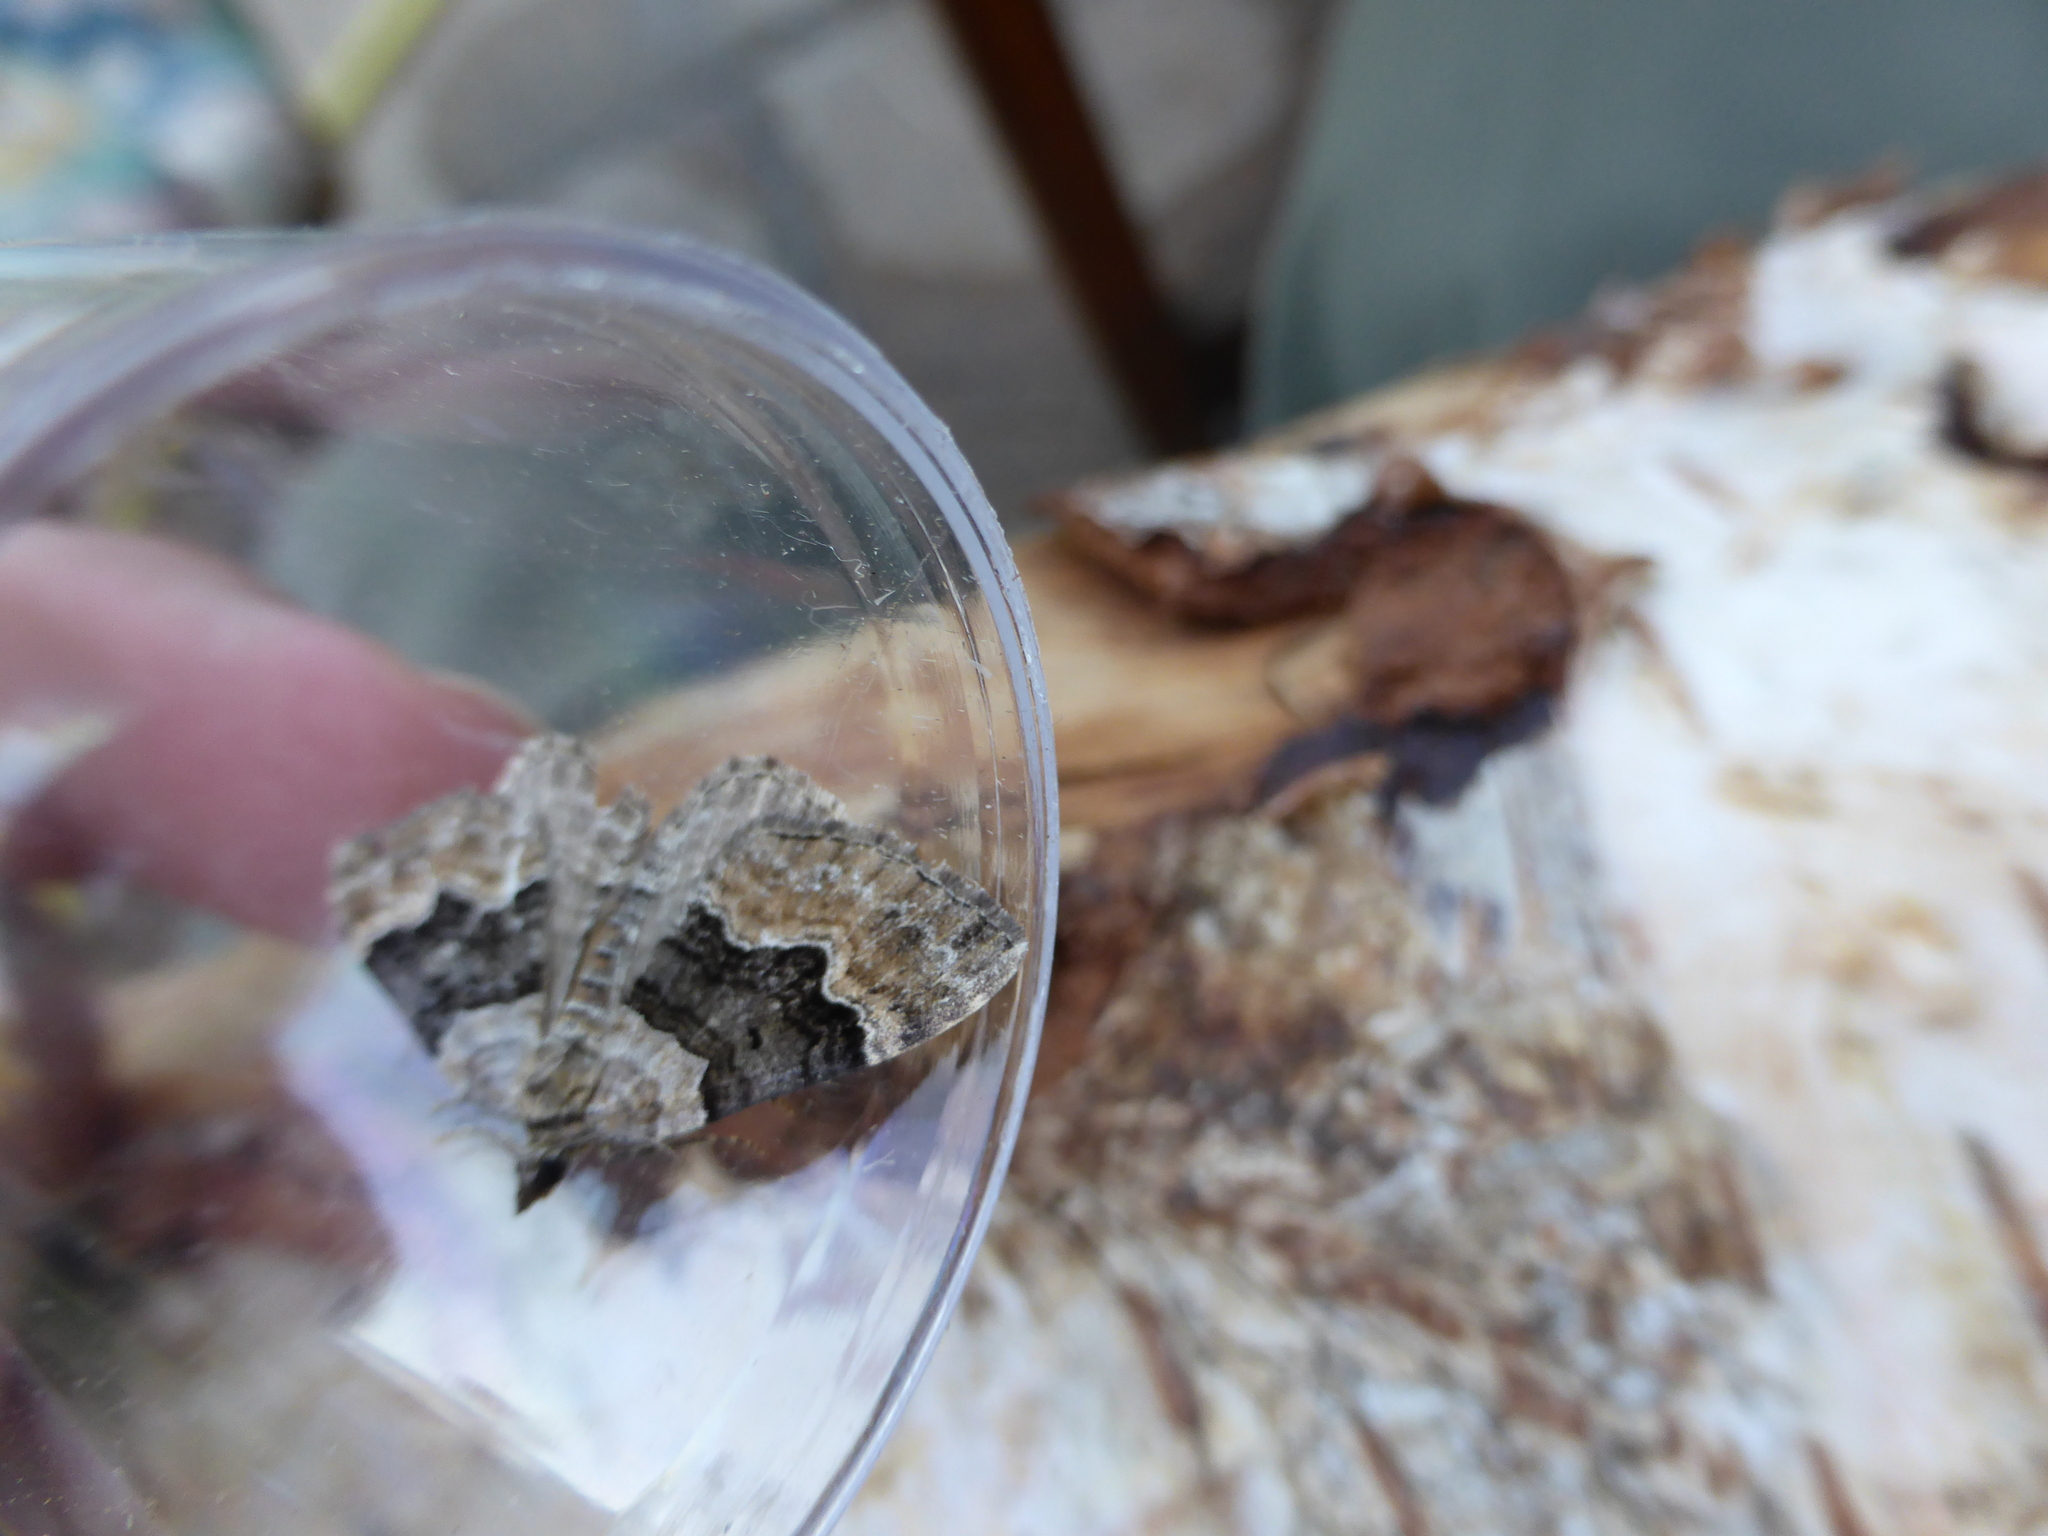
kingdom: Animalia
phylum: Arthropoda
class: Insecta
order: Lepidoptera
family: Geometridae
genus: Xanthorhoe
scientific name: Xanthorhoe quadrifasiata
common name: Large twin-spot carpet
